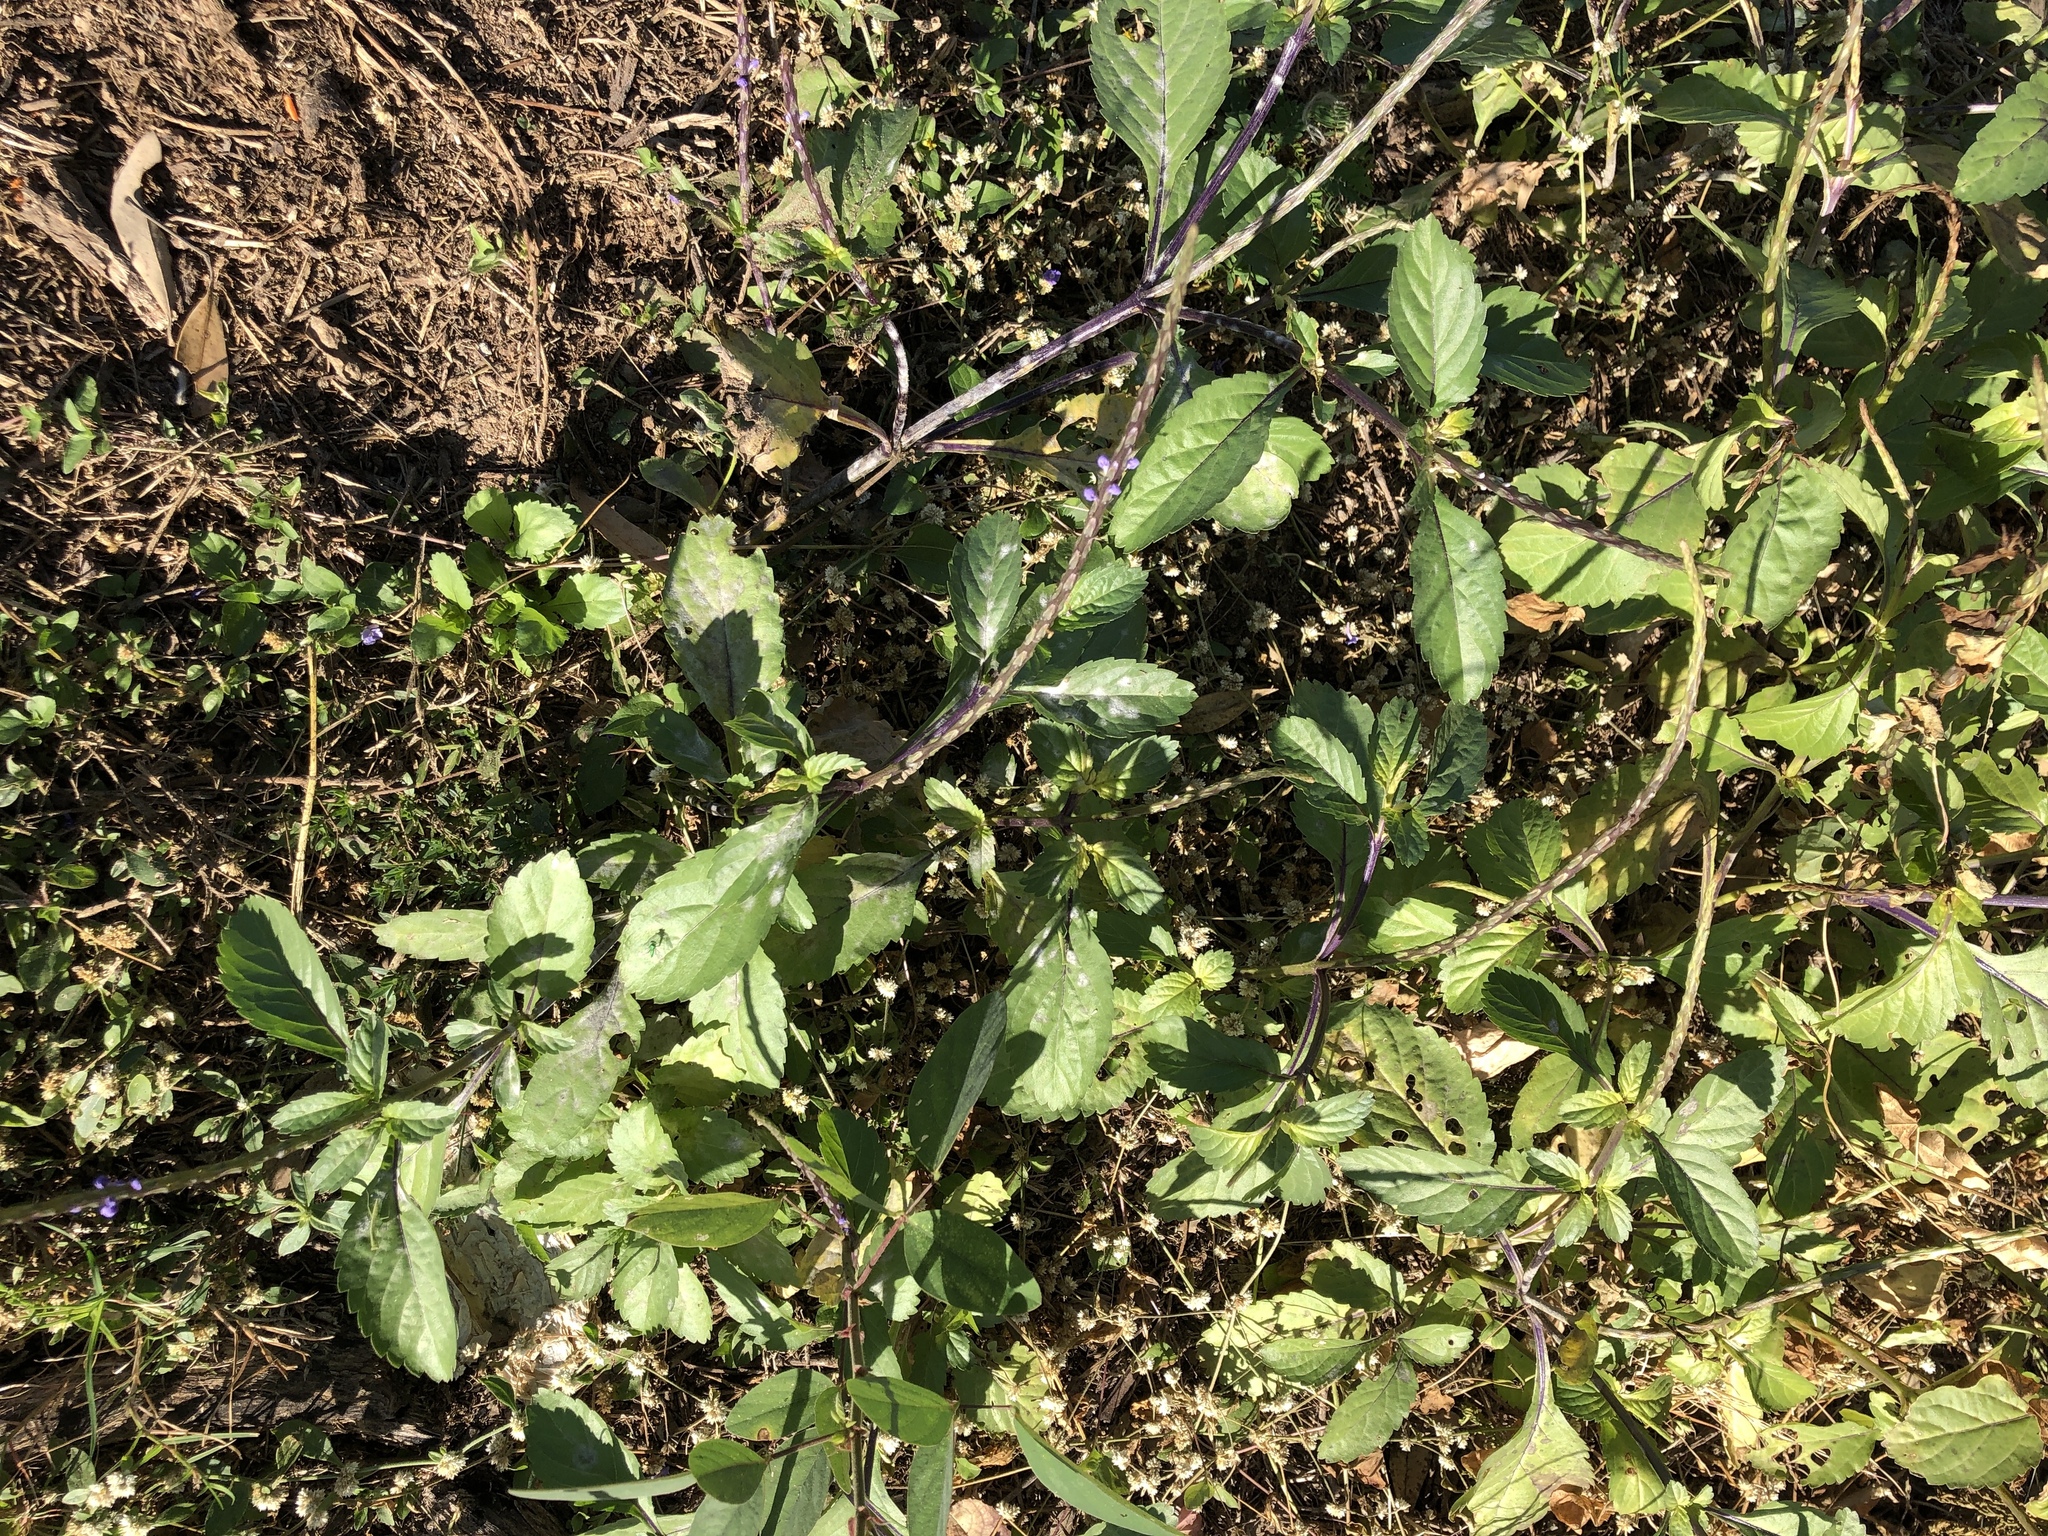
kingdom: Plantae
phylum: Tracheophyta
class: Magnoliopsida
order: Lamiales
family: Verbenaceae
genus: Stachytarpheta
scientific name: Stachytarpheta jamaicensis
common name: Light-blue snakeweed
